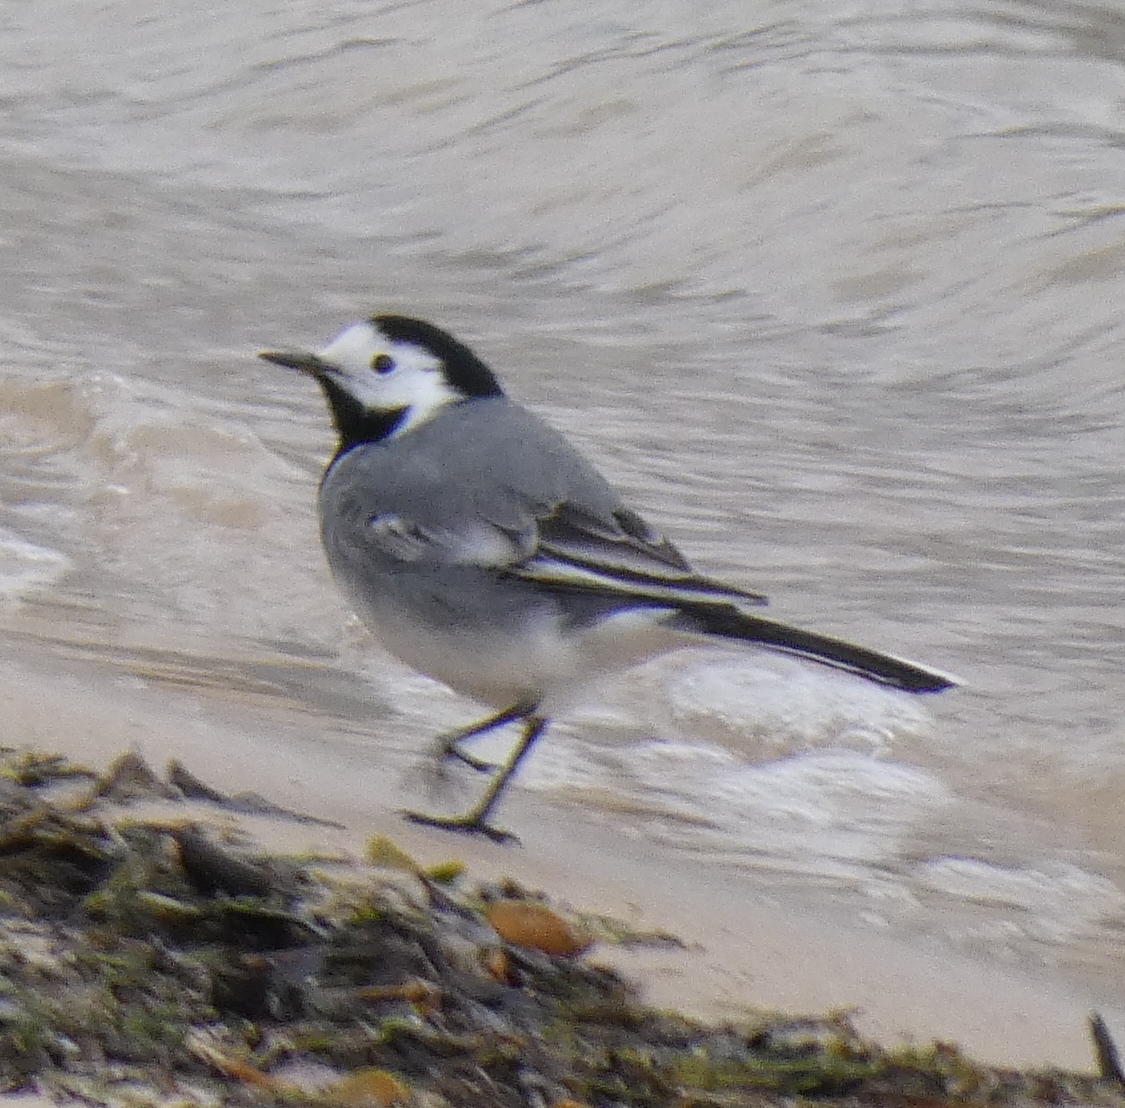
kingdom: Animalia
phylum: Chordata
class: Aves
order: Passeriformes
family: Motacillidae
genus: Motacilla
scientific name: Motacilla alba
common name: White wagtail
